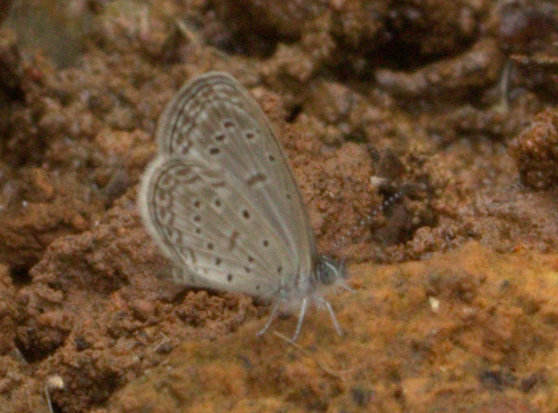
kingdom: Animalia
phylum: Arthropoda
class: Insecta
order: Lepidoptera
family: Lycaenidae
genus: Zizula
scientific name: Zizula hylax
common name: Gaika blue
